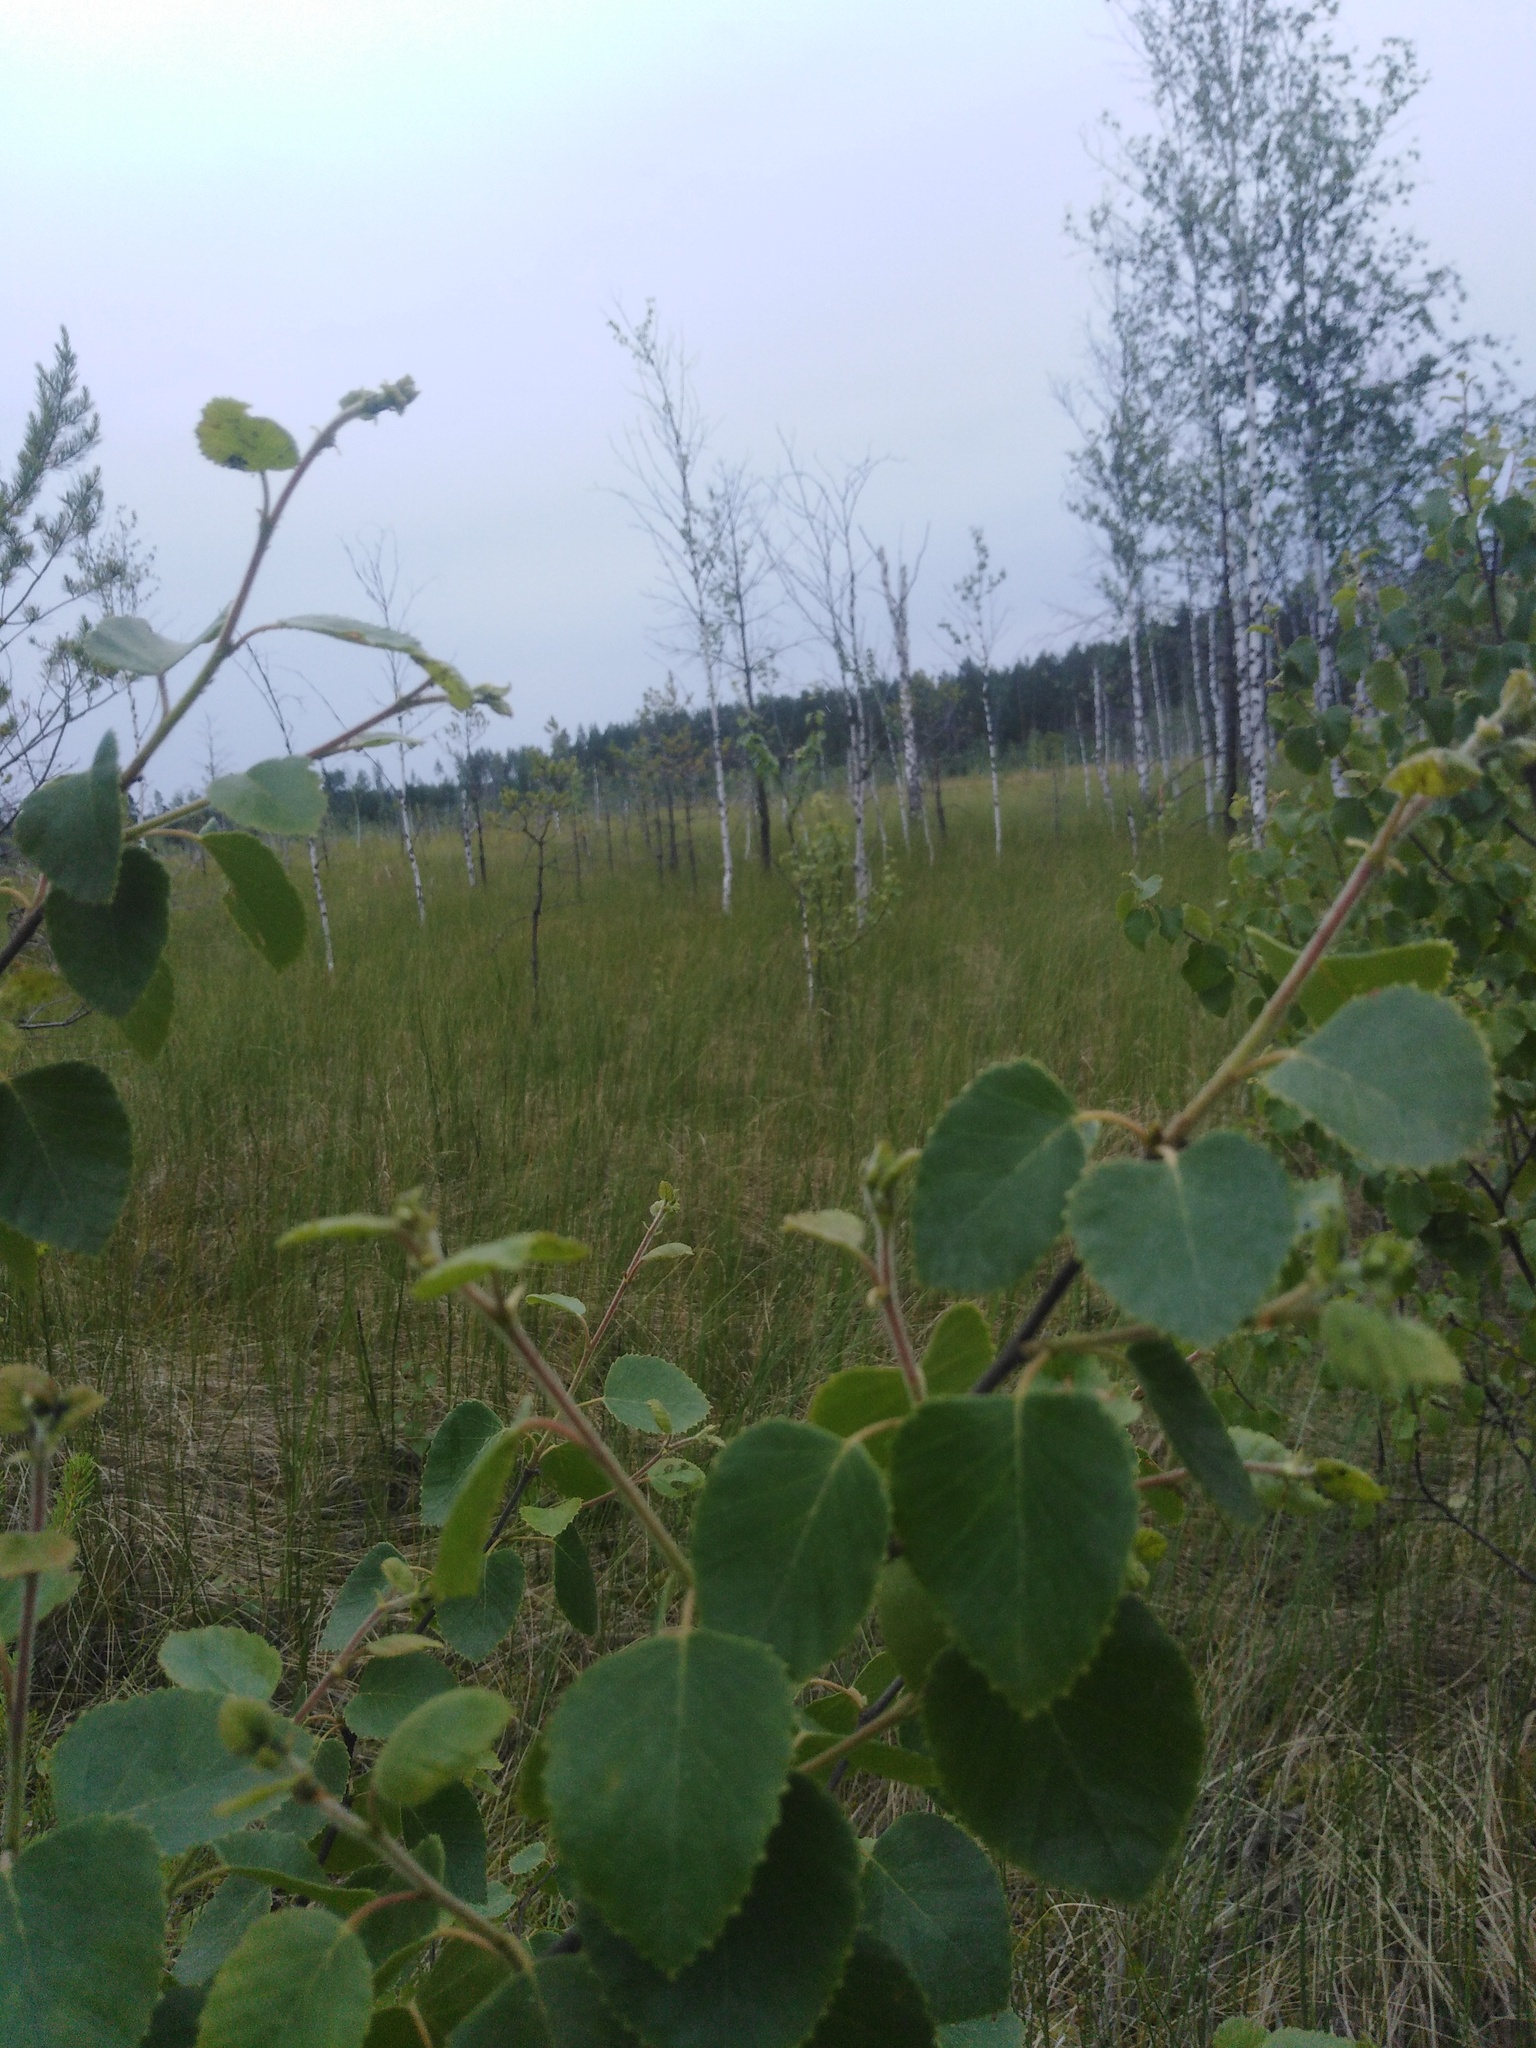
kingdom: Plantae
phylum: Tracheophyta
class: Magnoliopsida
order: Fagales
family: Betulaceae
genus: Betula
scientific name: Betula pubescens
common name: Downy birch
